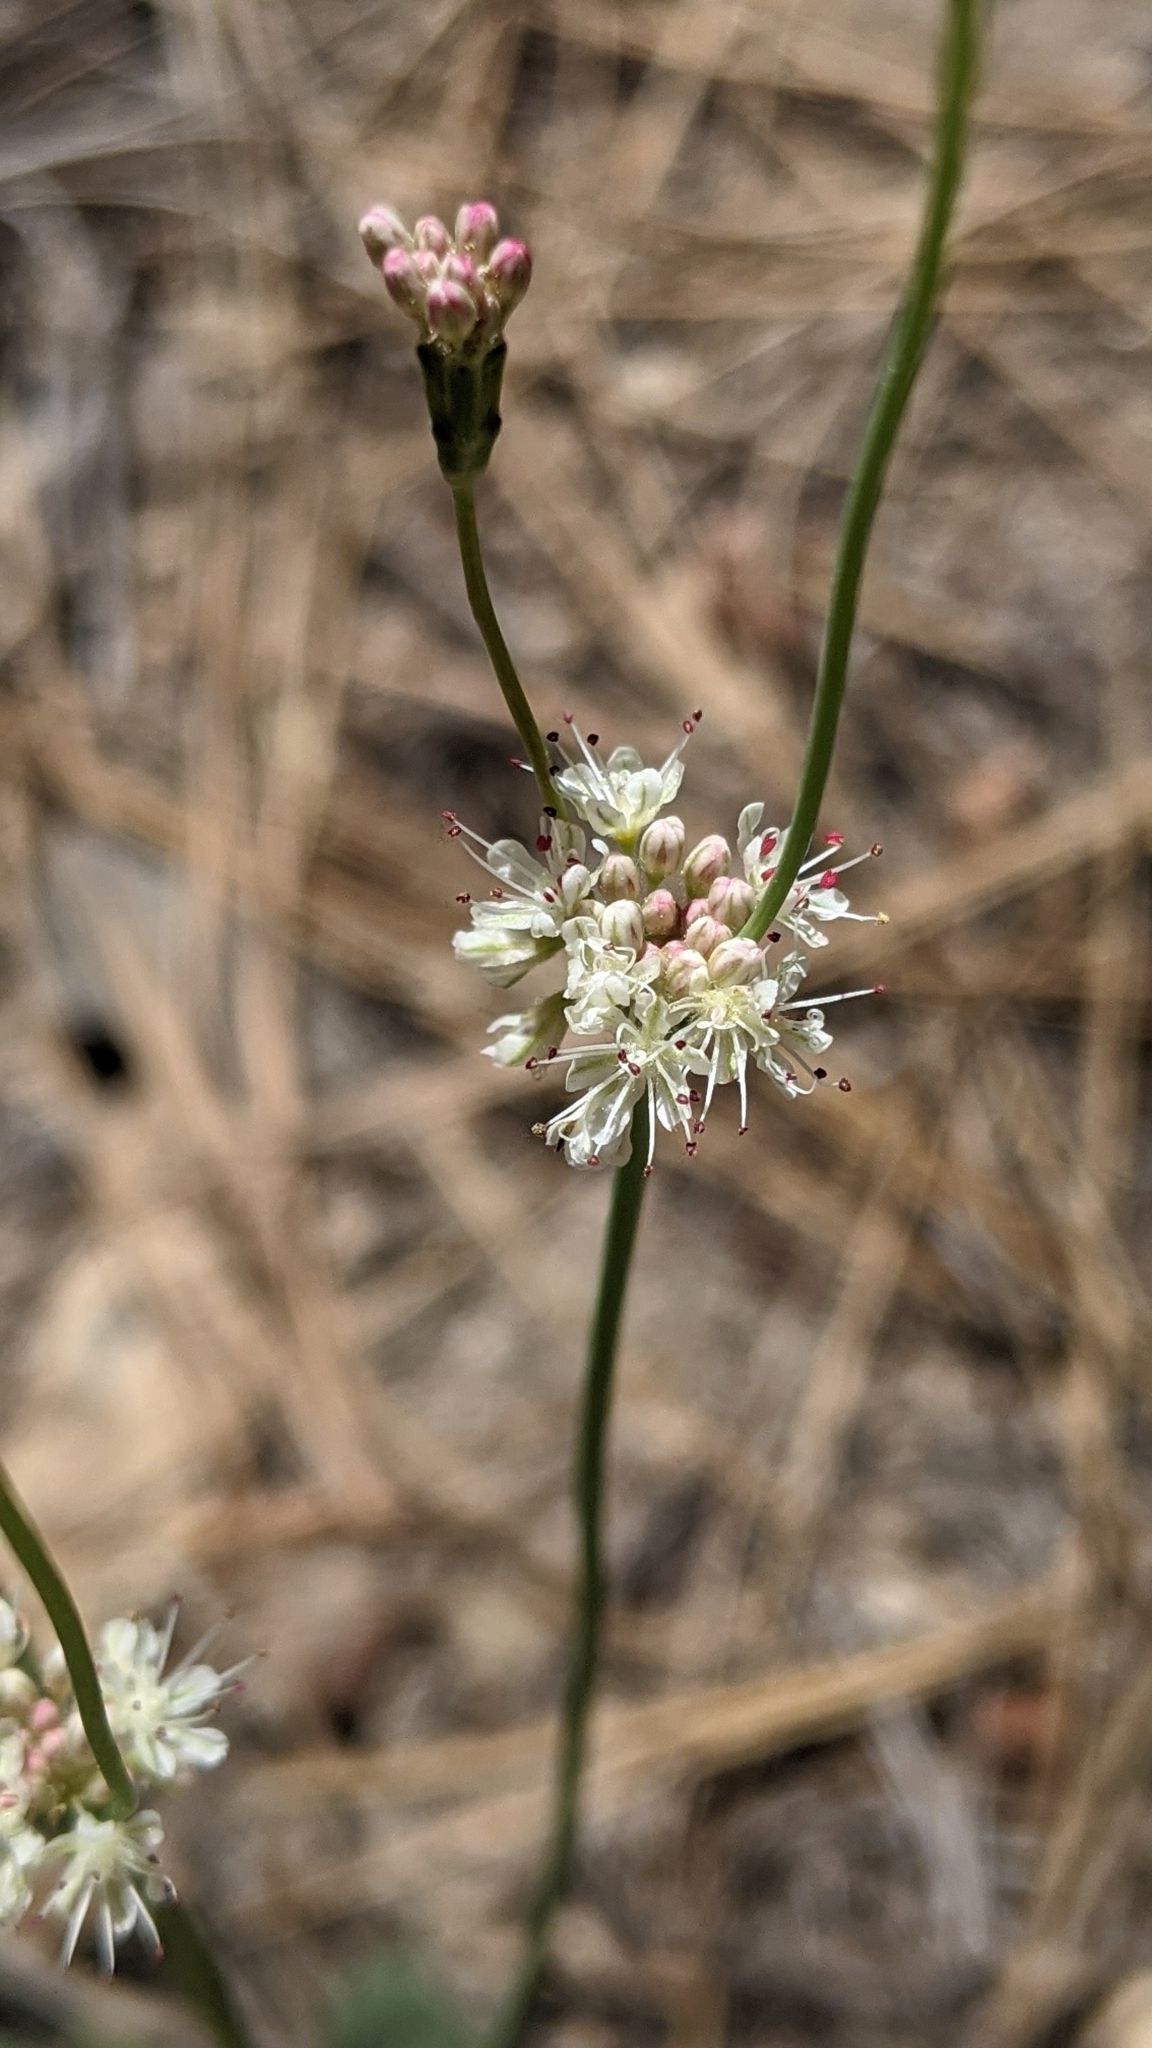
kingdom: Plantae
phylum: Tracheophyta
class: Magnoliopsida
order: Caryophyllales
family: Polygonaceae
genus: Eriogonum
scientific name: Eriogonum nudum
